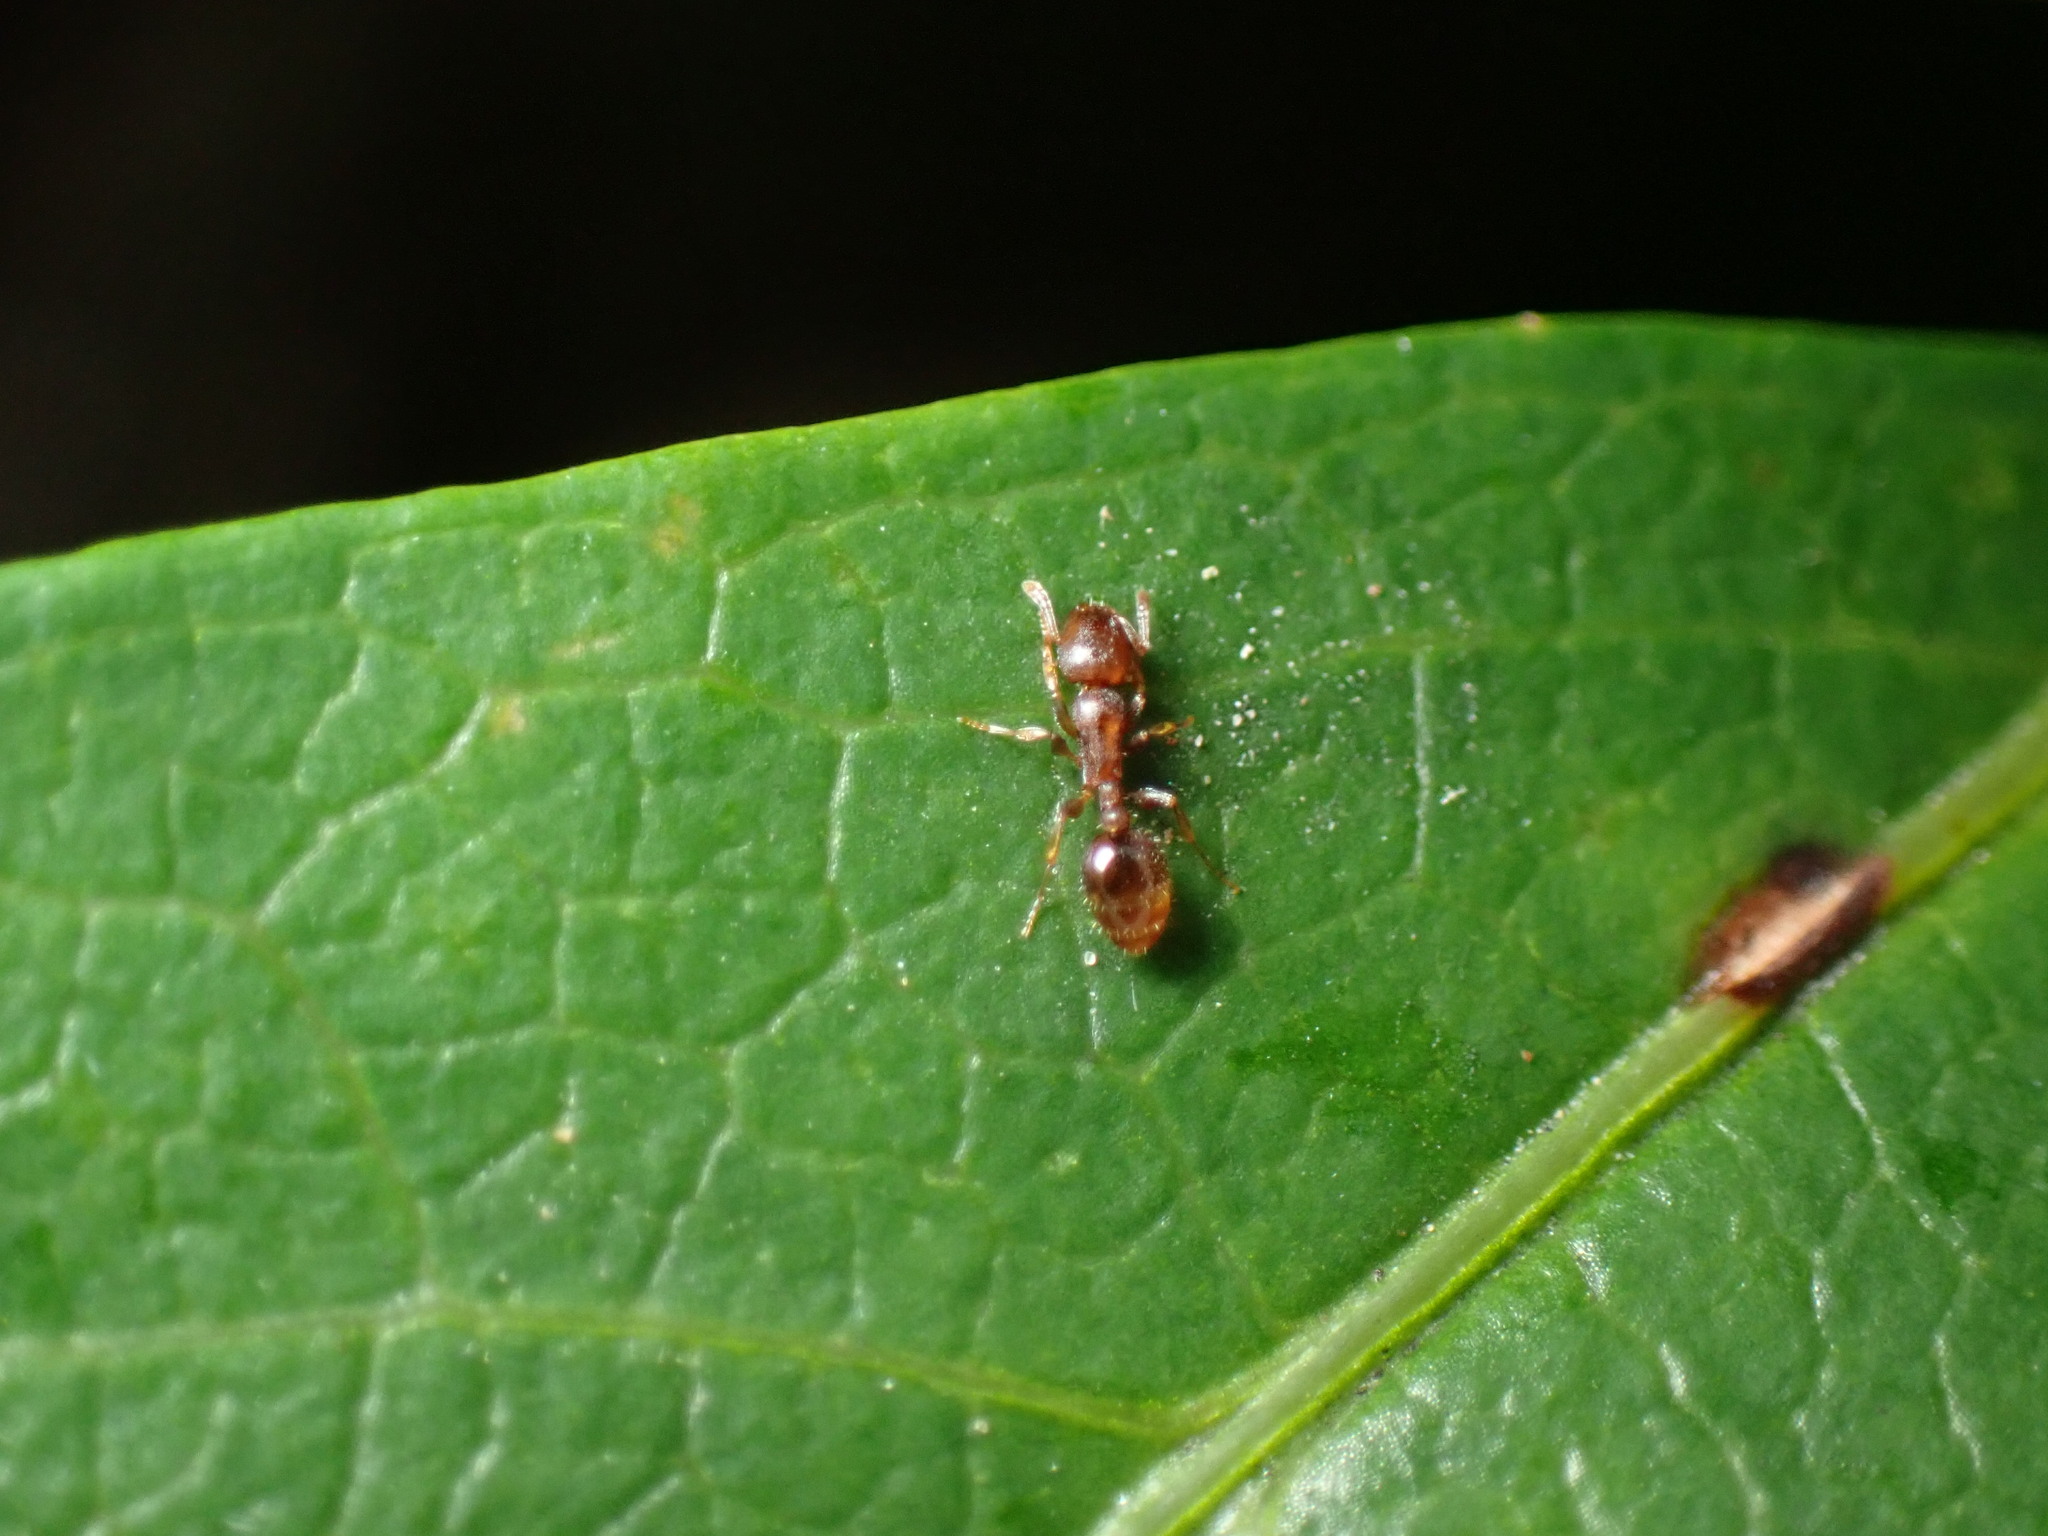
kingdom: Animalia
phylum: Arthropoda
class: Insecta
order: Hymenoptera
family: Formicidae
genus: Leptothorax
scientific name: Leptothorax schaumii
